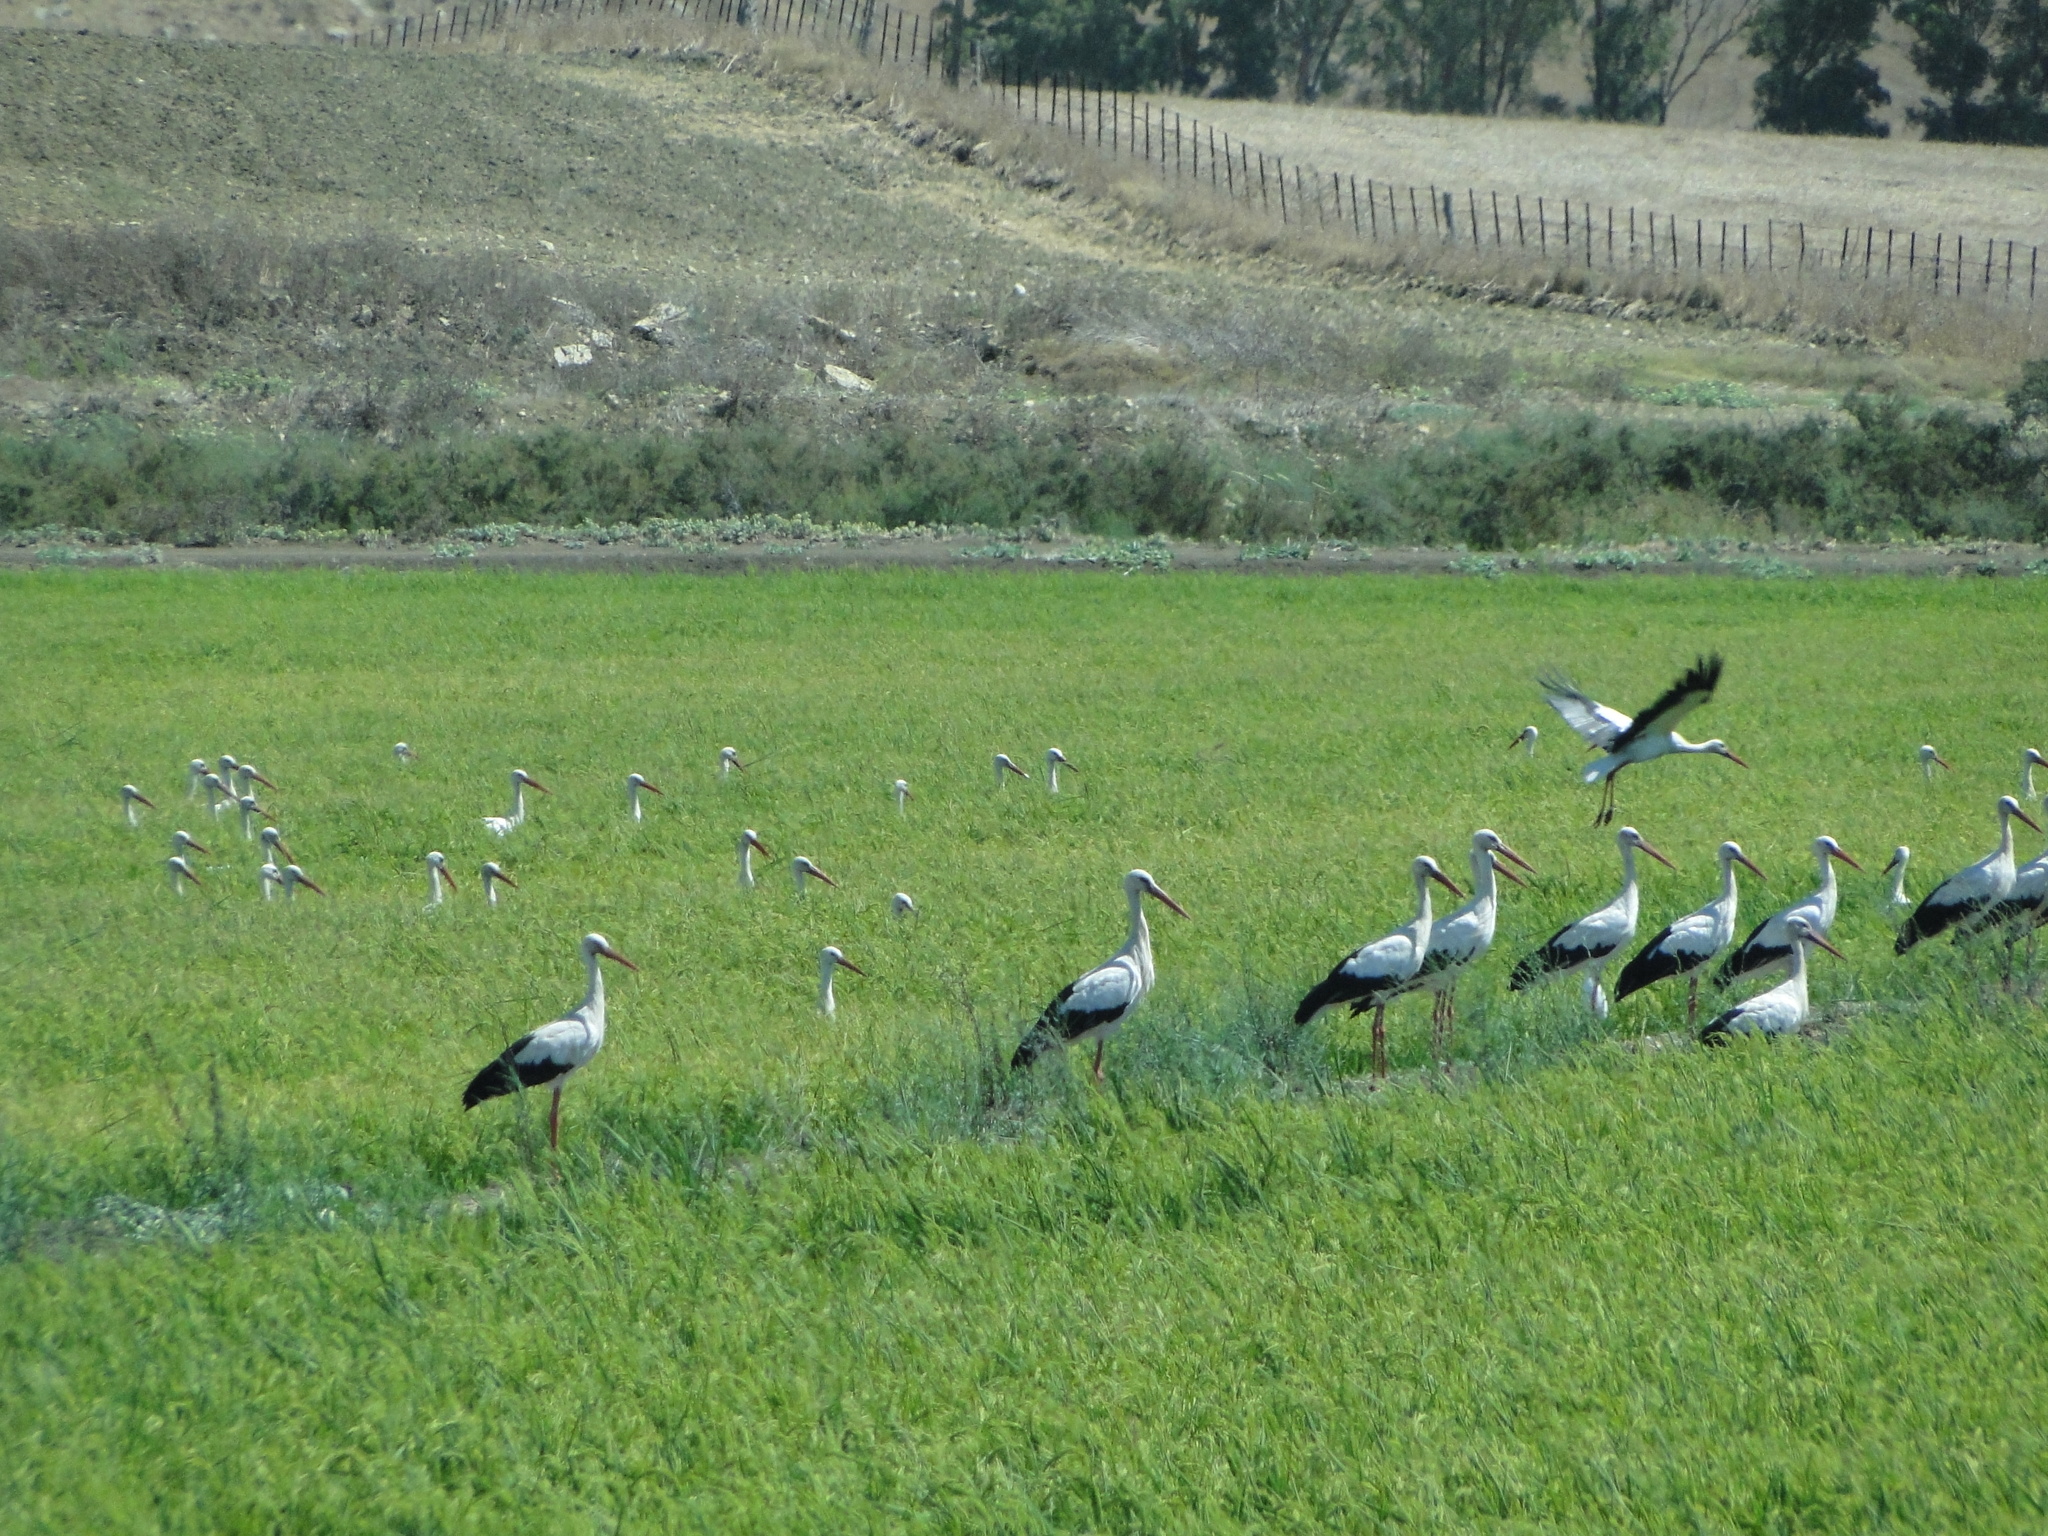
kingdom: Animalia
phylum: Chordata
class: Aves
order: Ciconiiformes
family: Ciconiidae
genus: Ciconia
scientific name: Ciconia ciconia
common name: White stork
